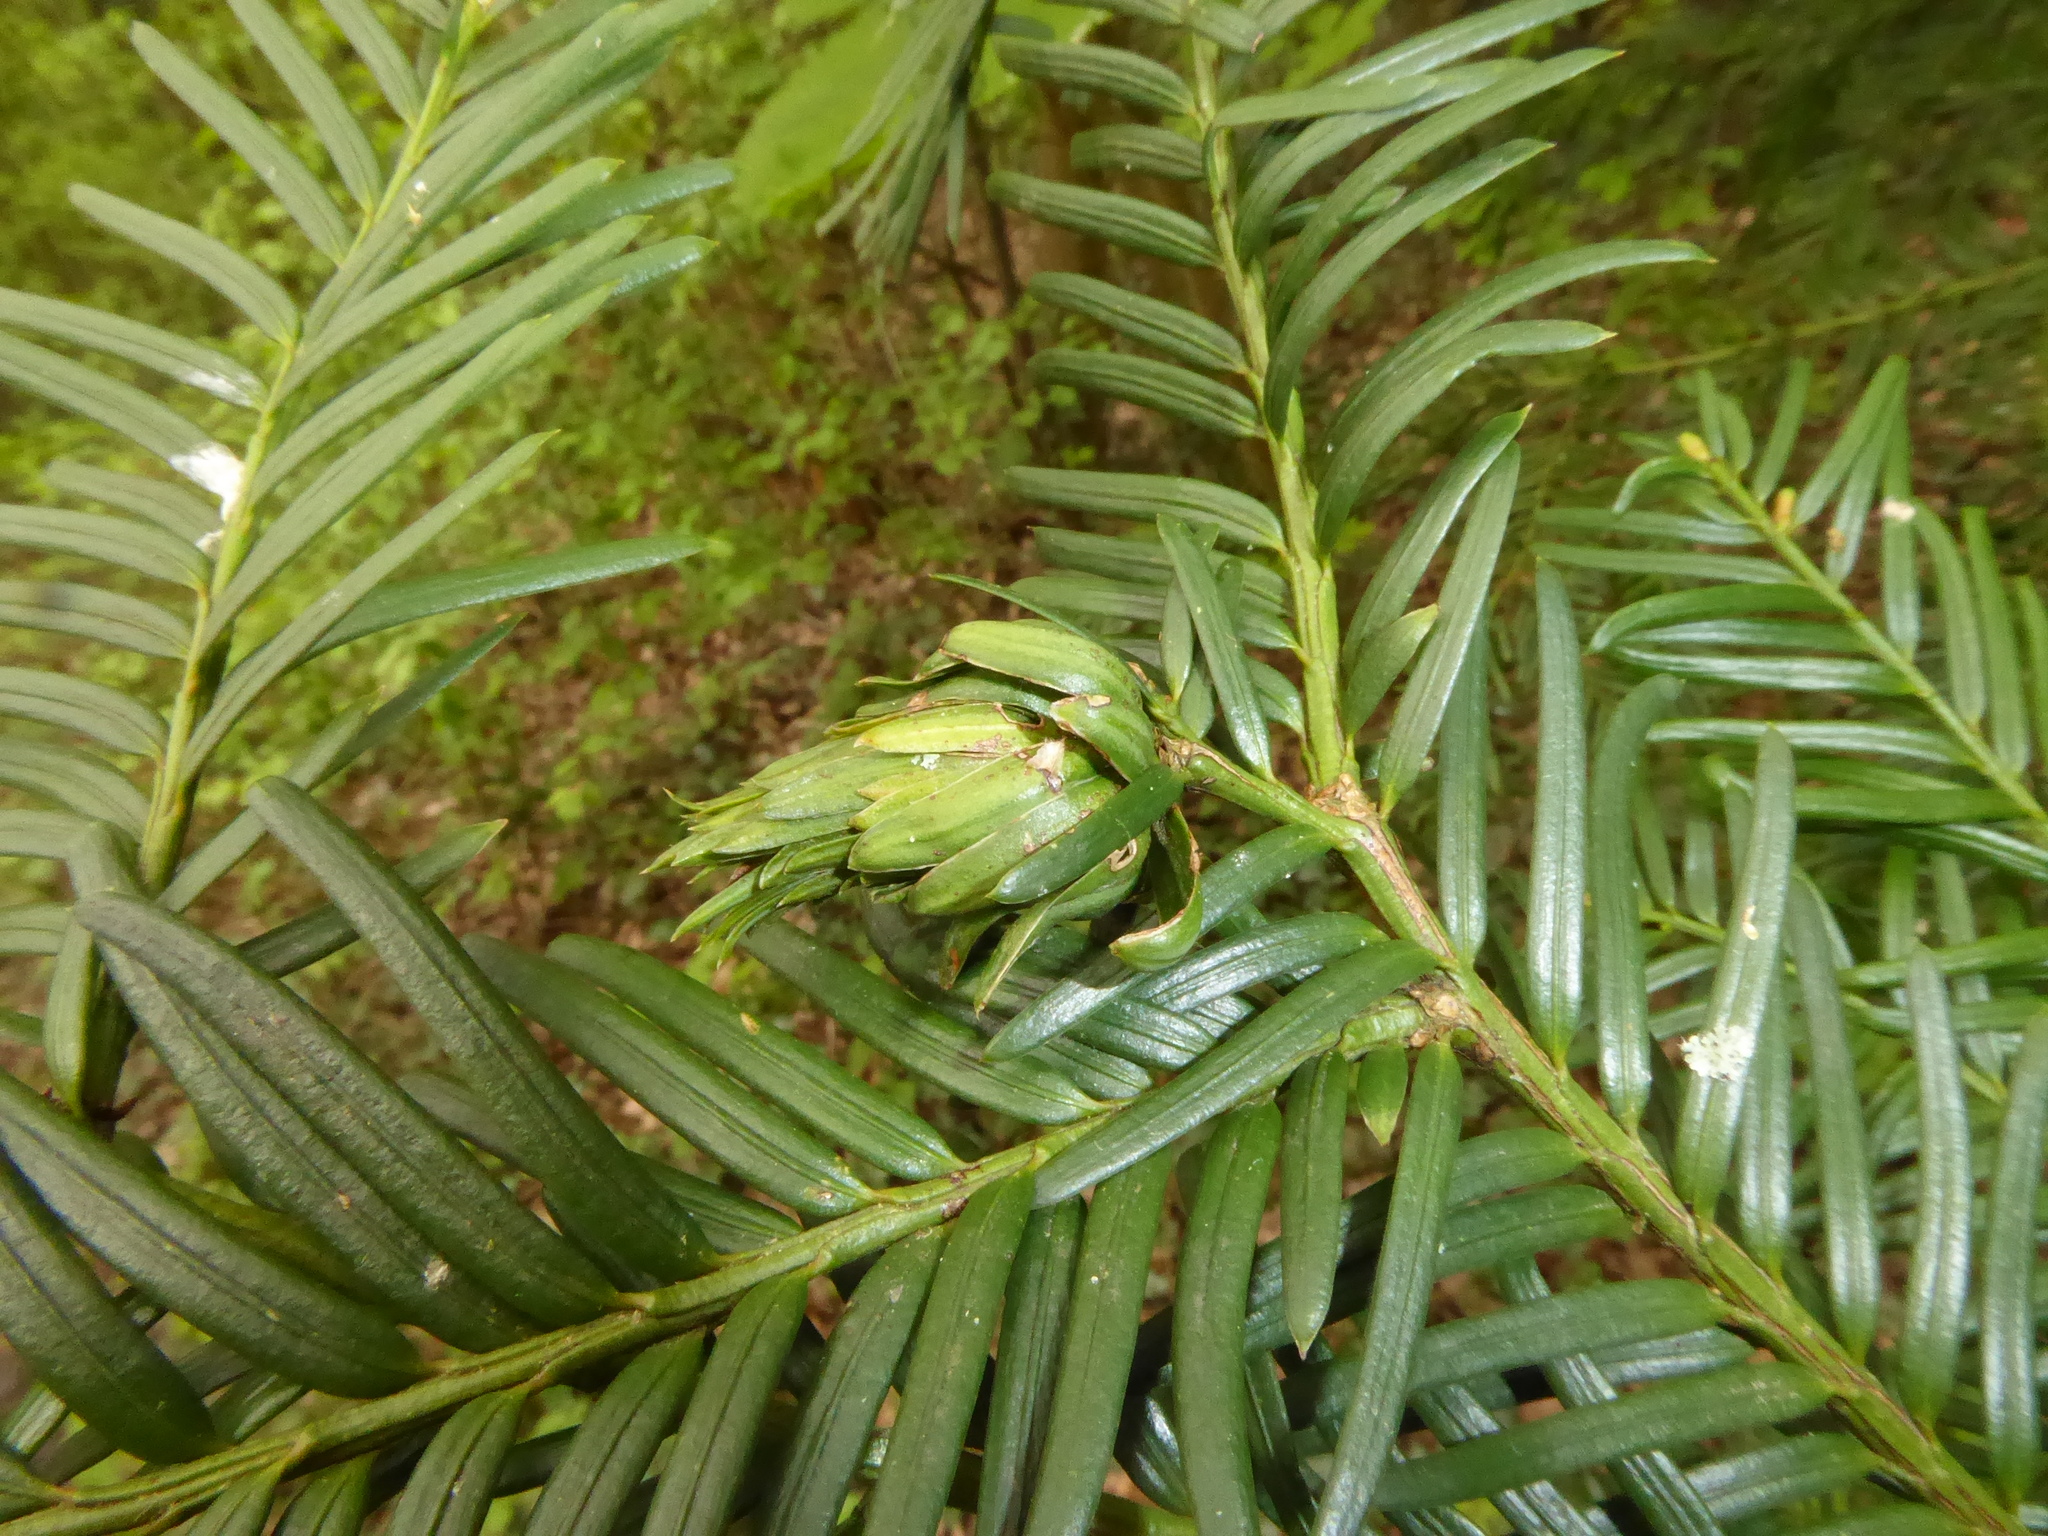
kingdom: Animalia
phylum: Arthropoda
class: Insecta
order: Diptera
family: Cecidomyiidae
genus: Taxomyia
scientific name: Taxomyia taxi
